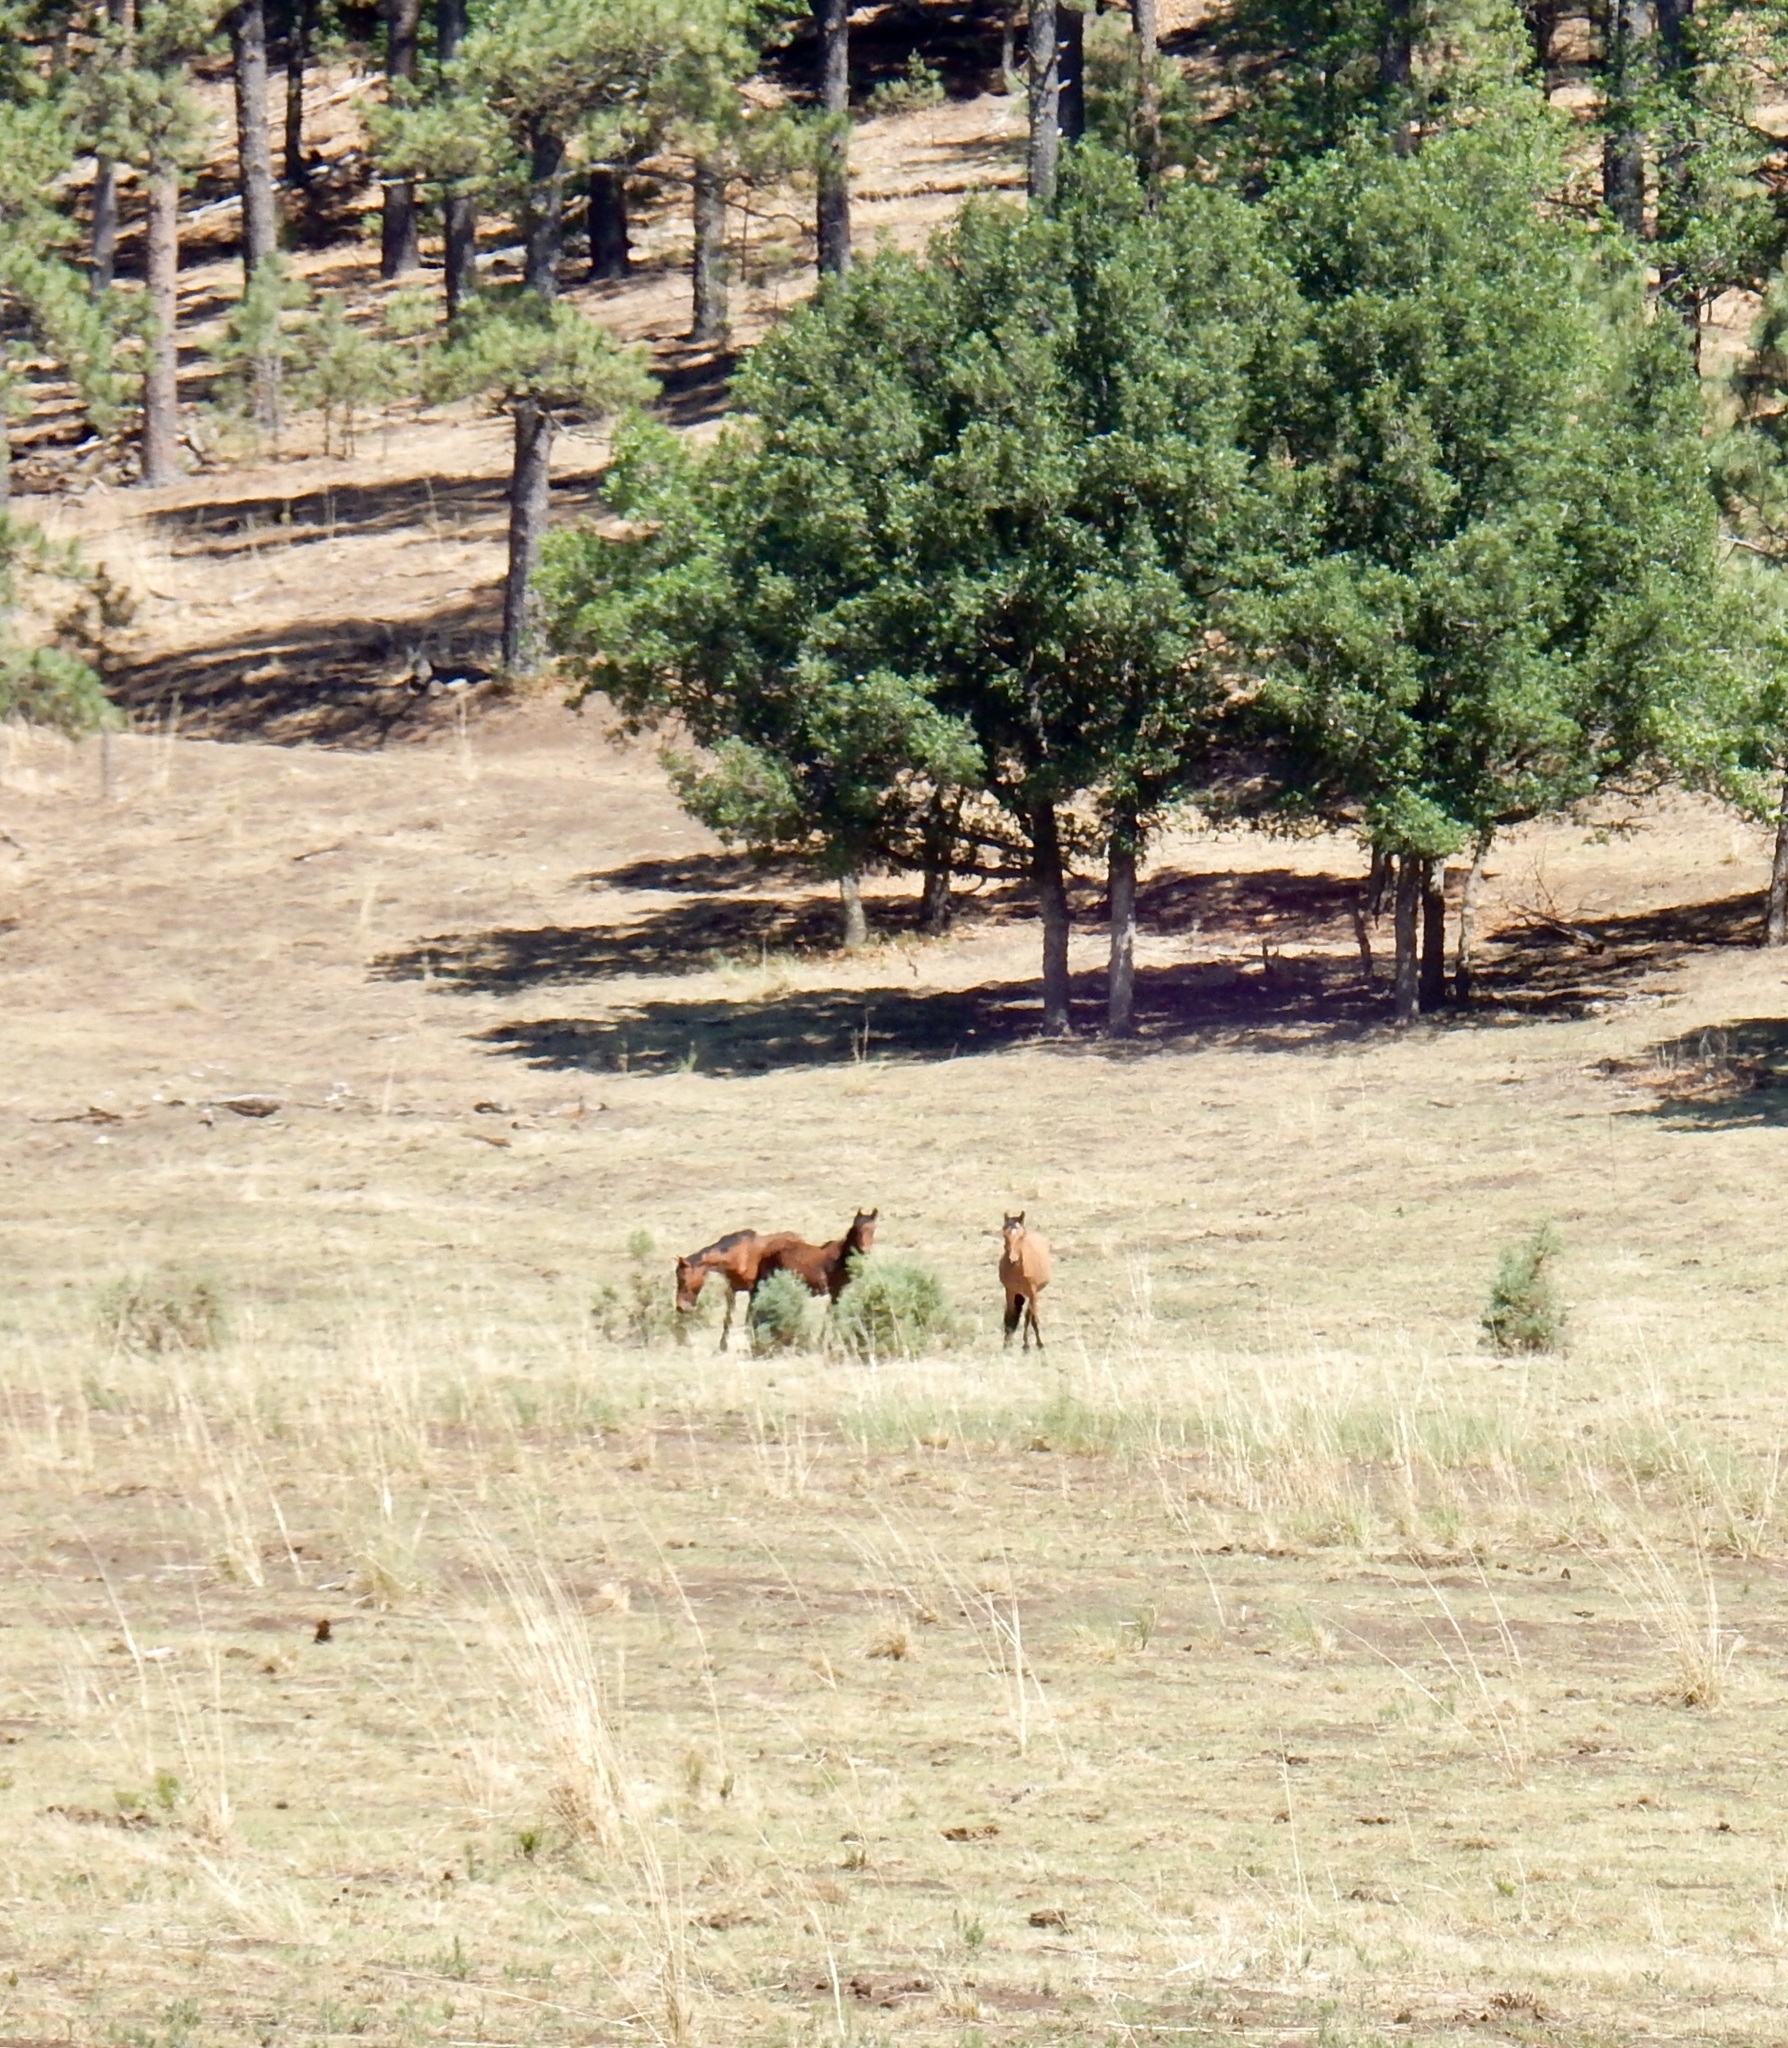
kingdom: Animalia
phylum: Chordata
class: Mammalia
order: Perissodactyla
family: Equidae
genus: Equus
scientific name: Equus caballus
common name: Horse
